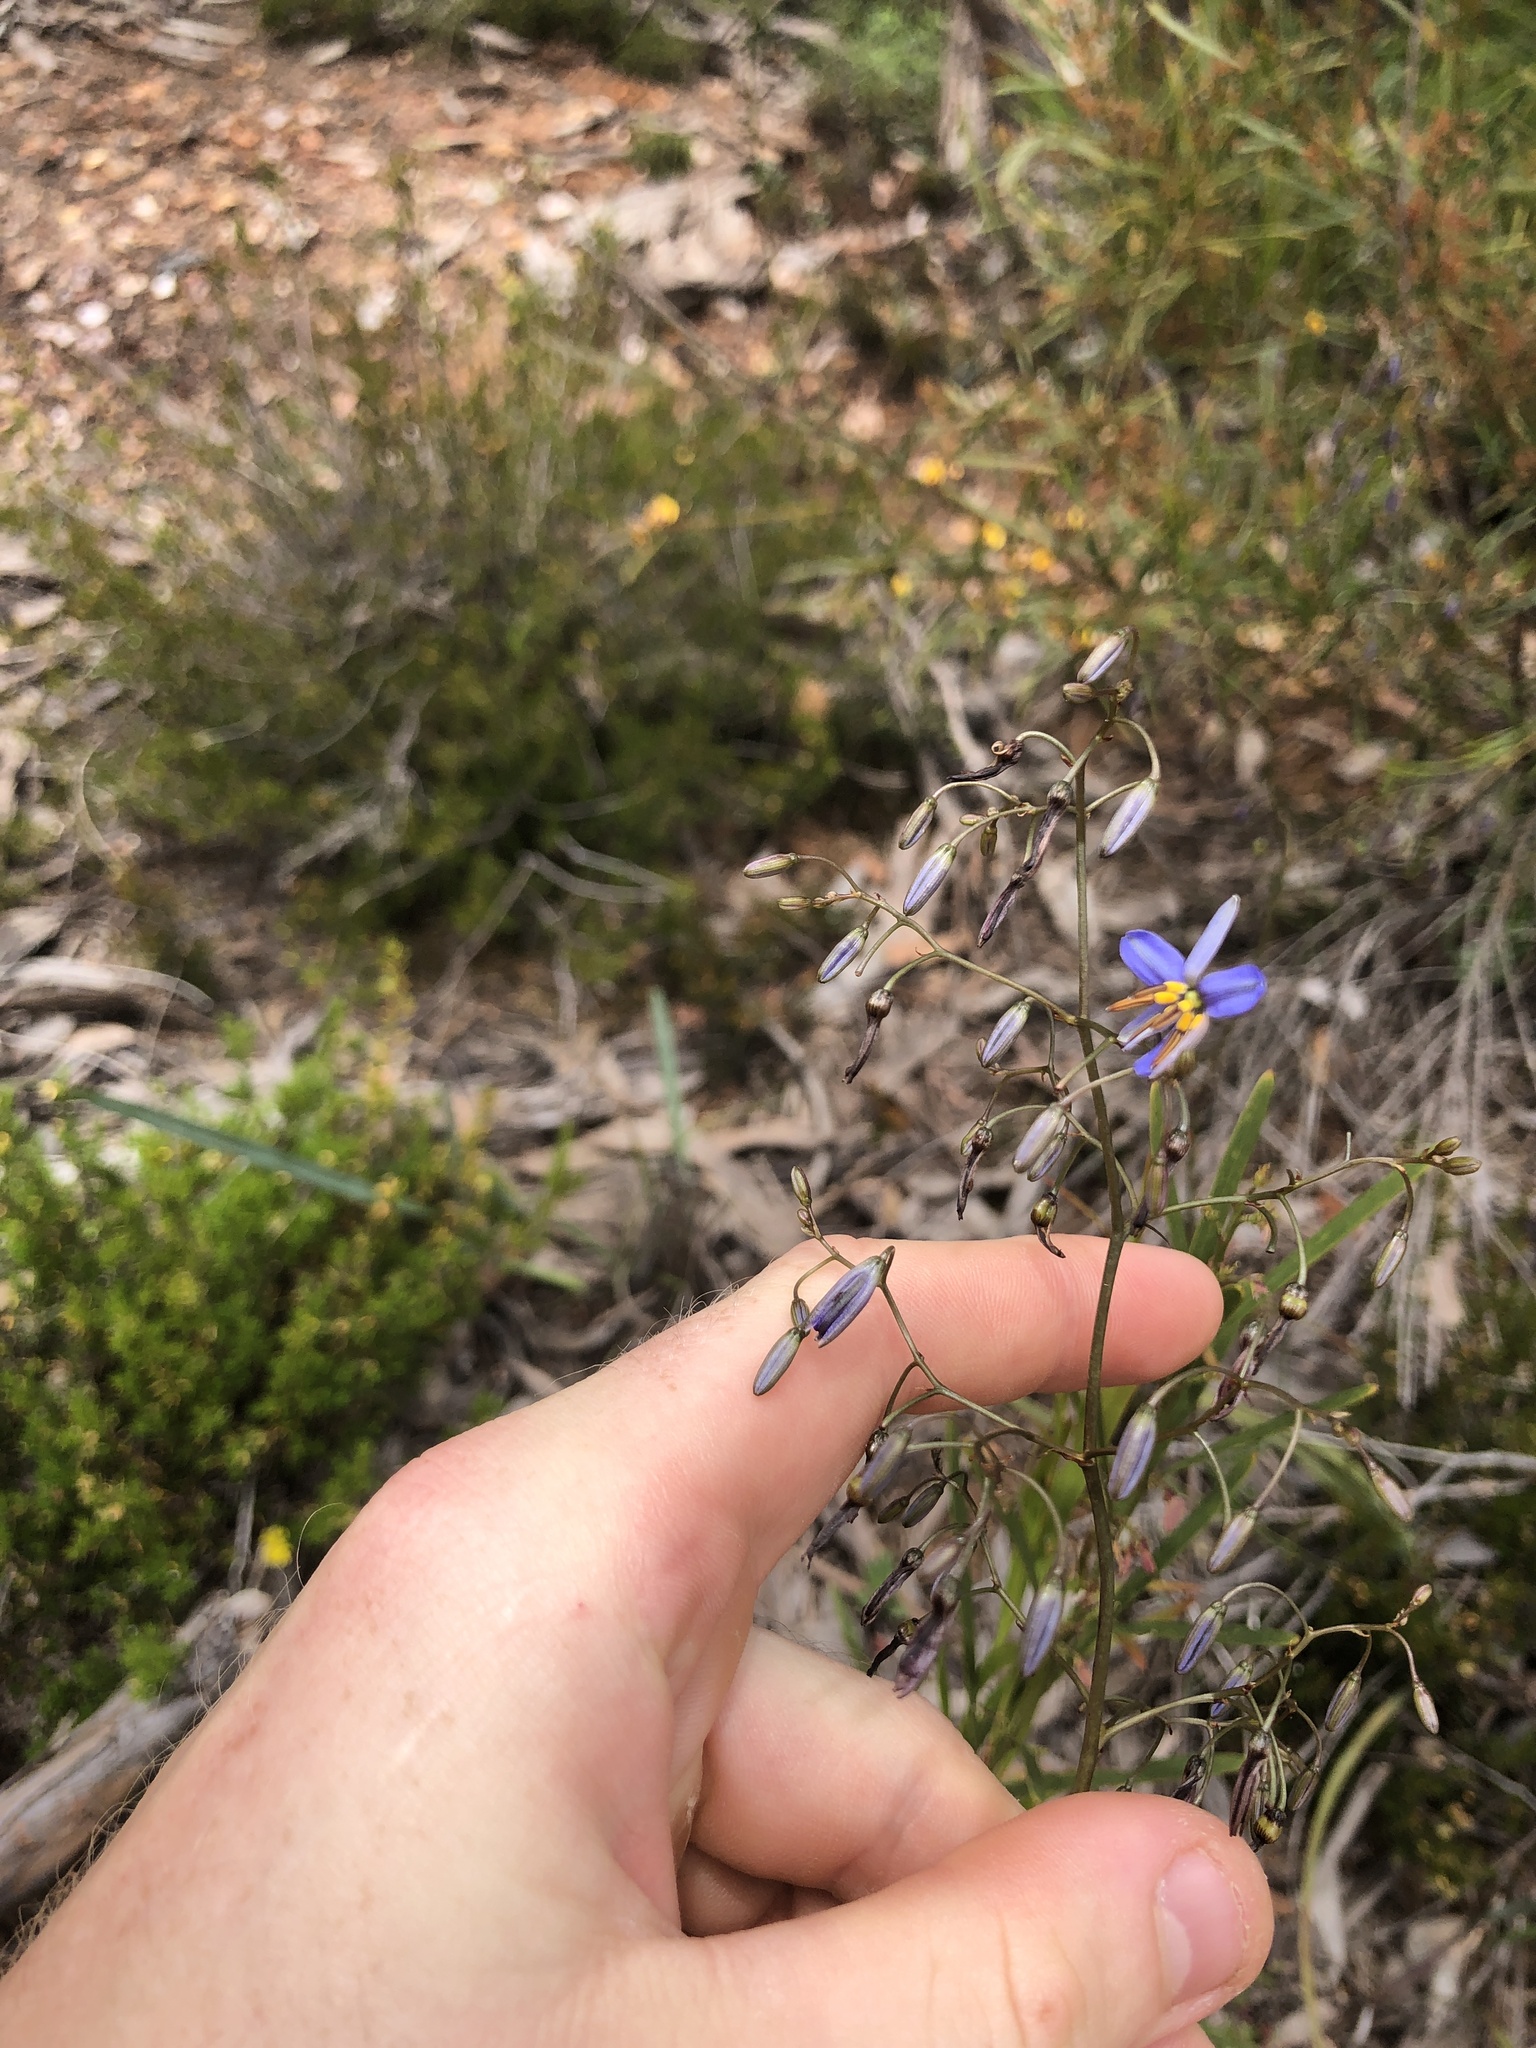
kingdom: Plantae
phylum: Tracheophyta
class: Liliopsida
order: Asparagales
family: Asphodelaceae
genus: Dianella
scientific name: Dianella revoluta
